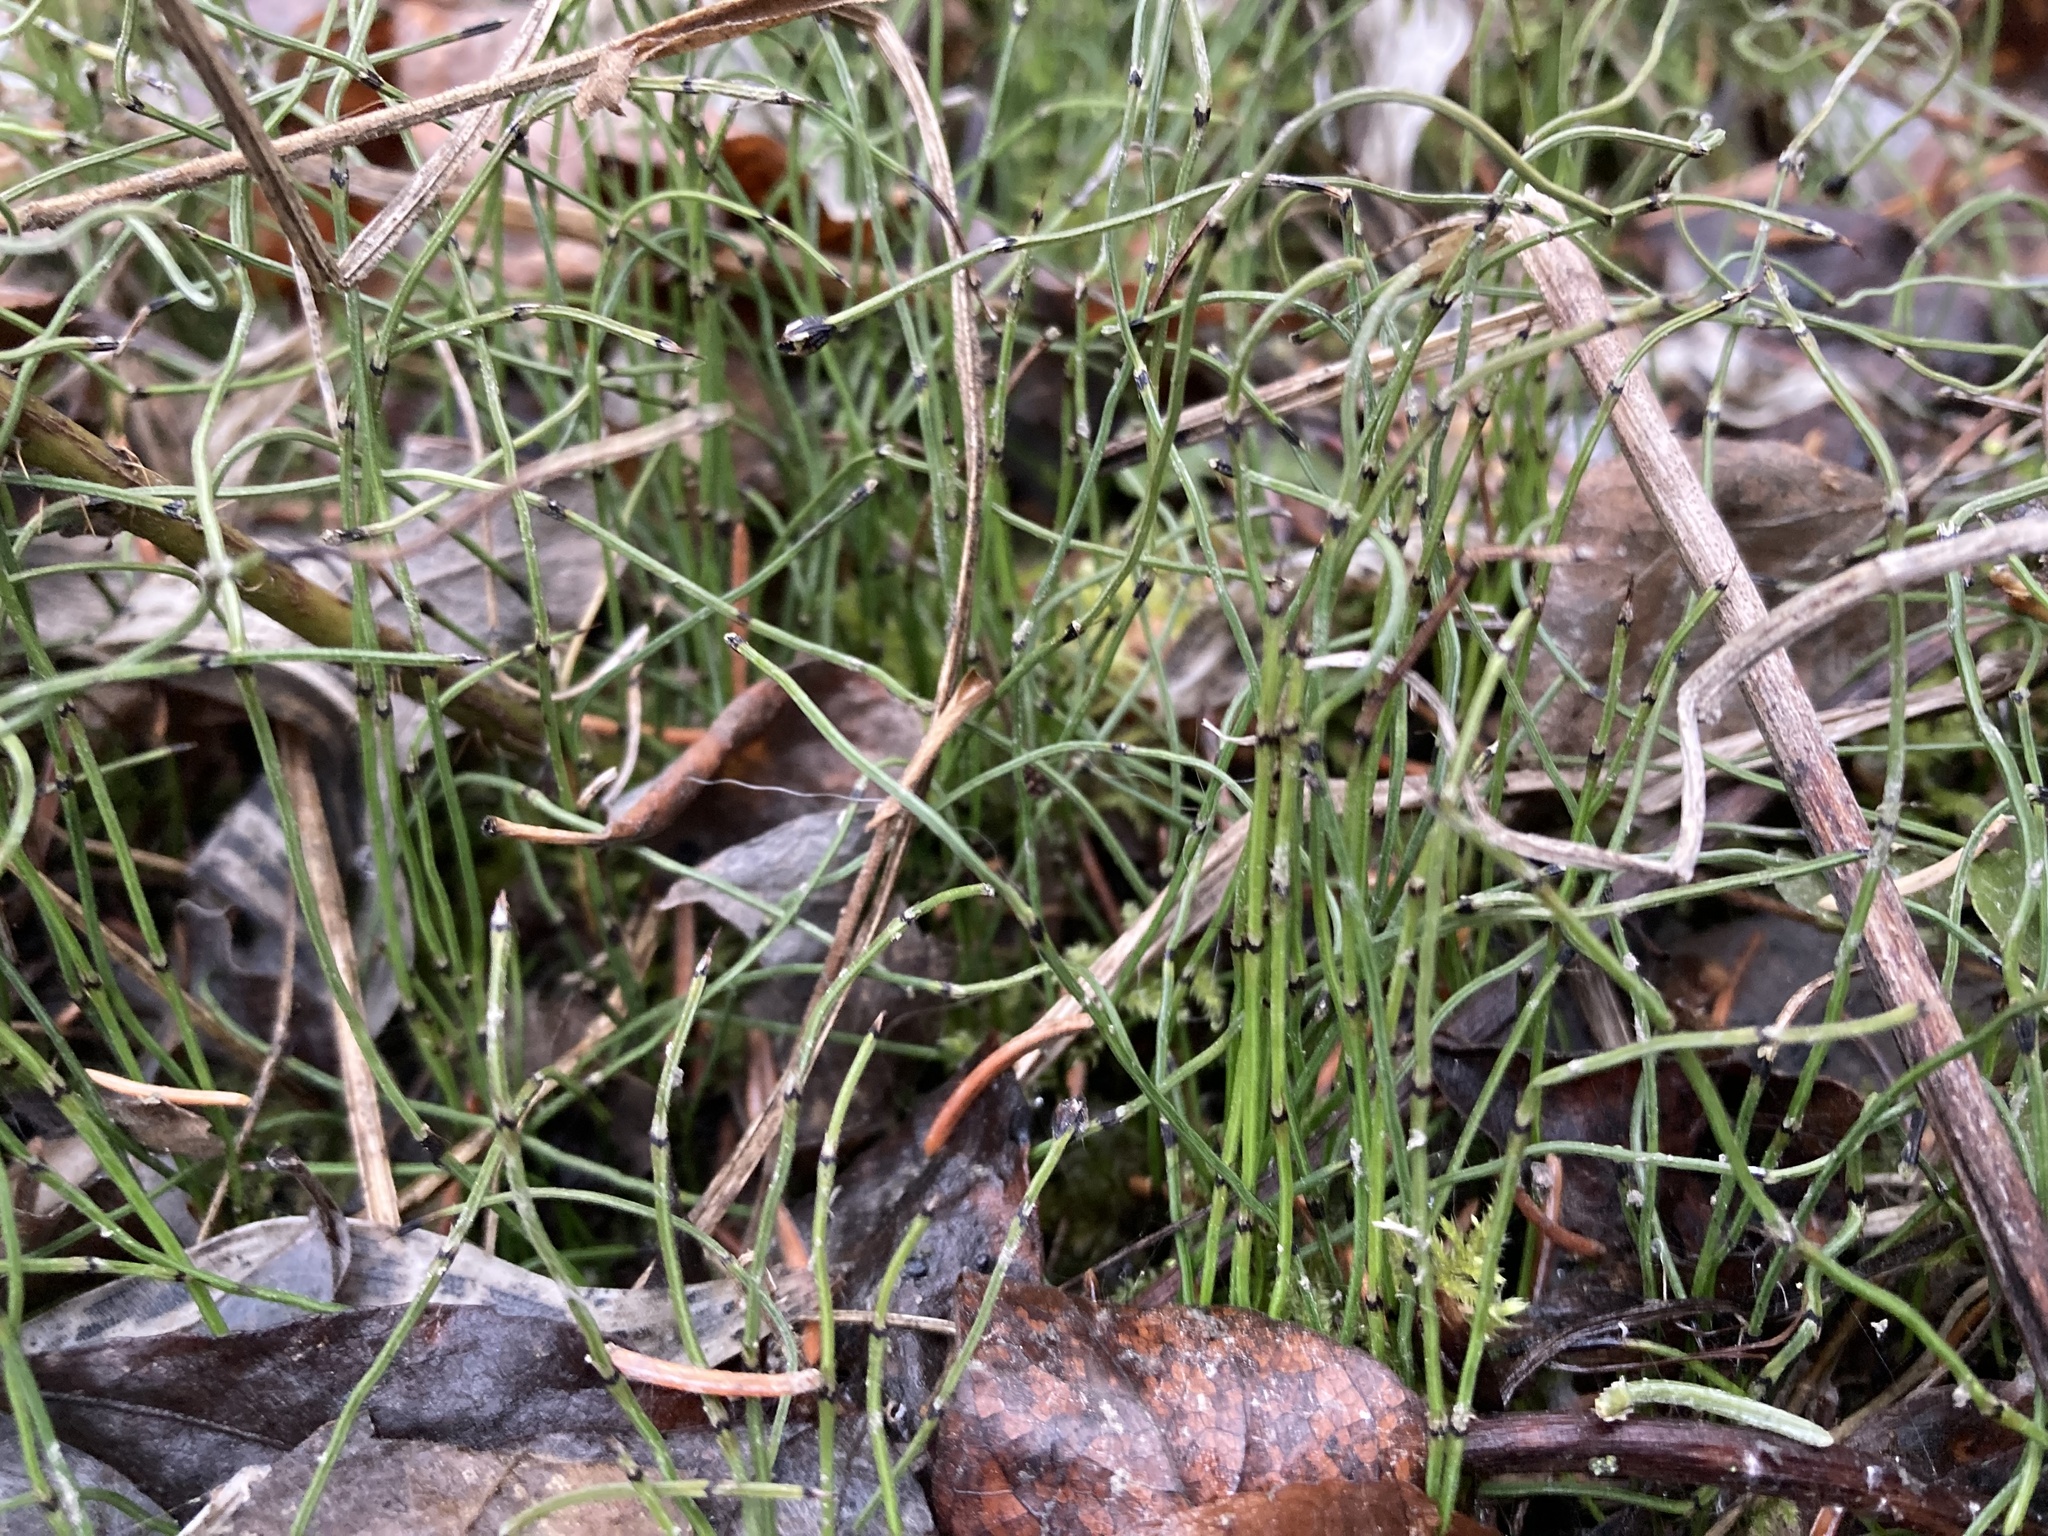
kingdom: Plantae
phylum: Tracheophyta
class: Polypodiopsida
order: Equisetales
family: Equisetaceae
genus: Equisetum
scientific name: Equisetum scirpoides
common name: Delicate horsetail
